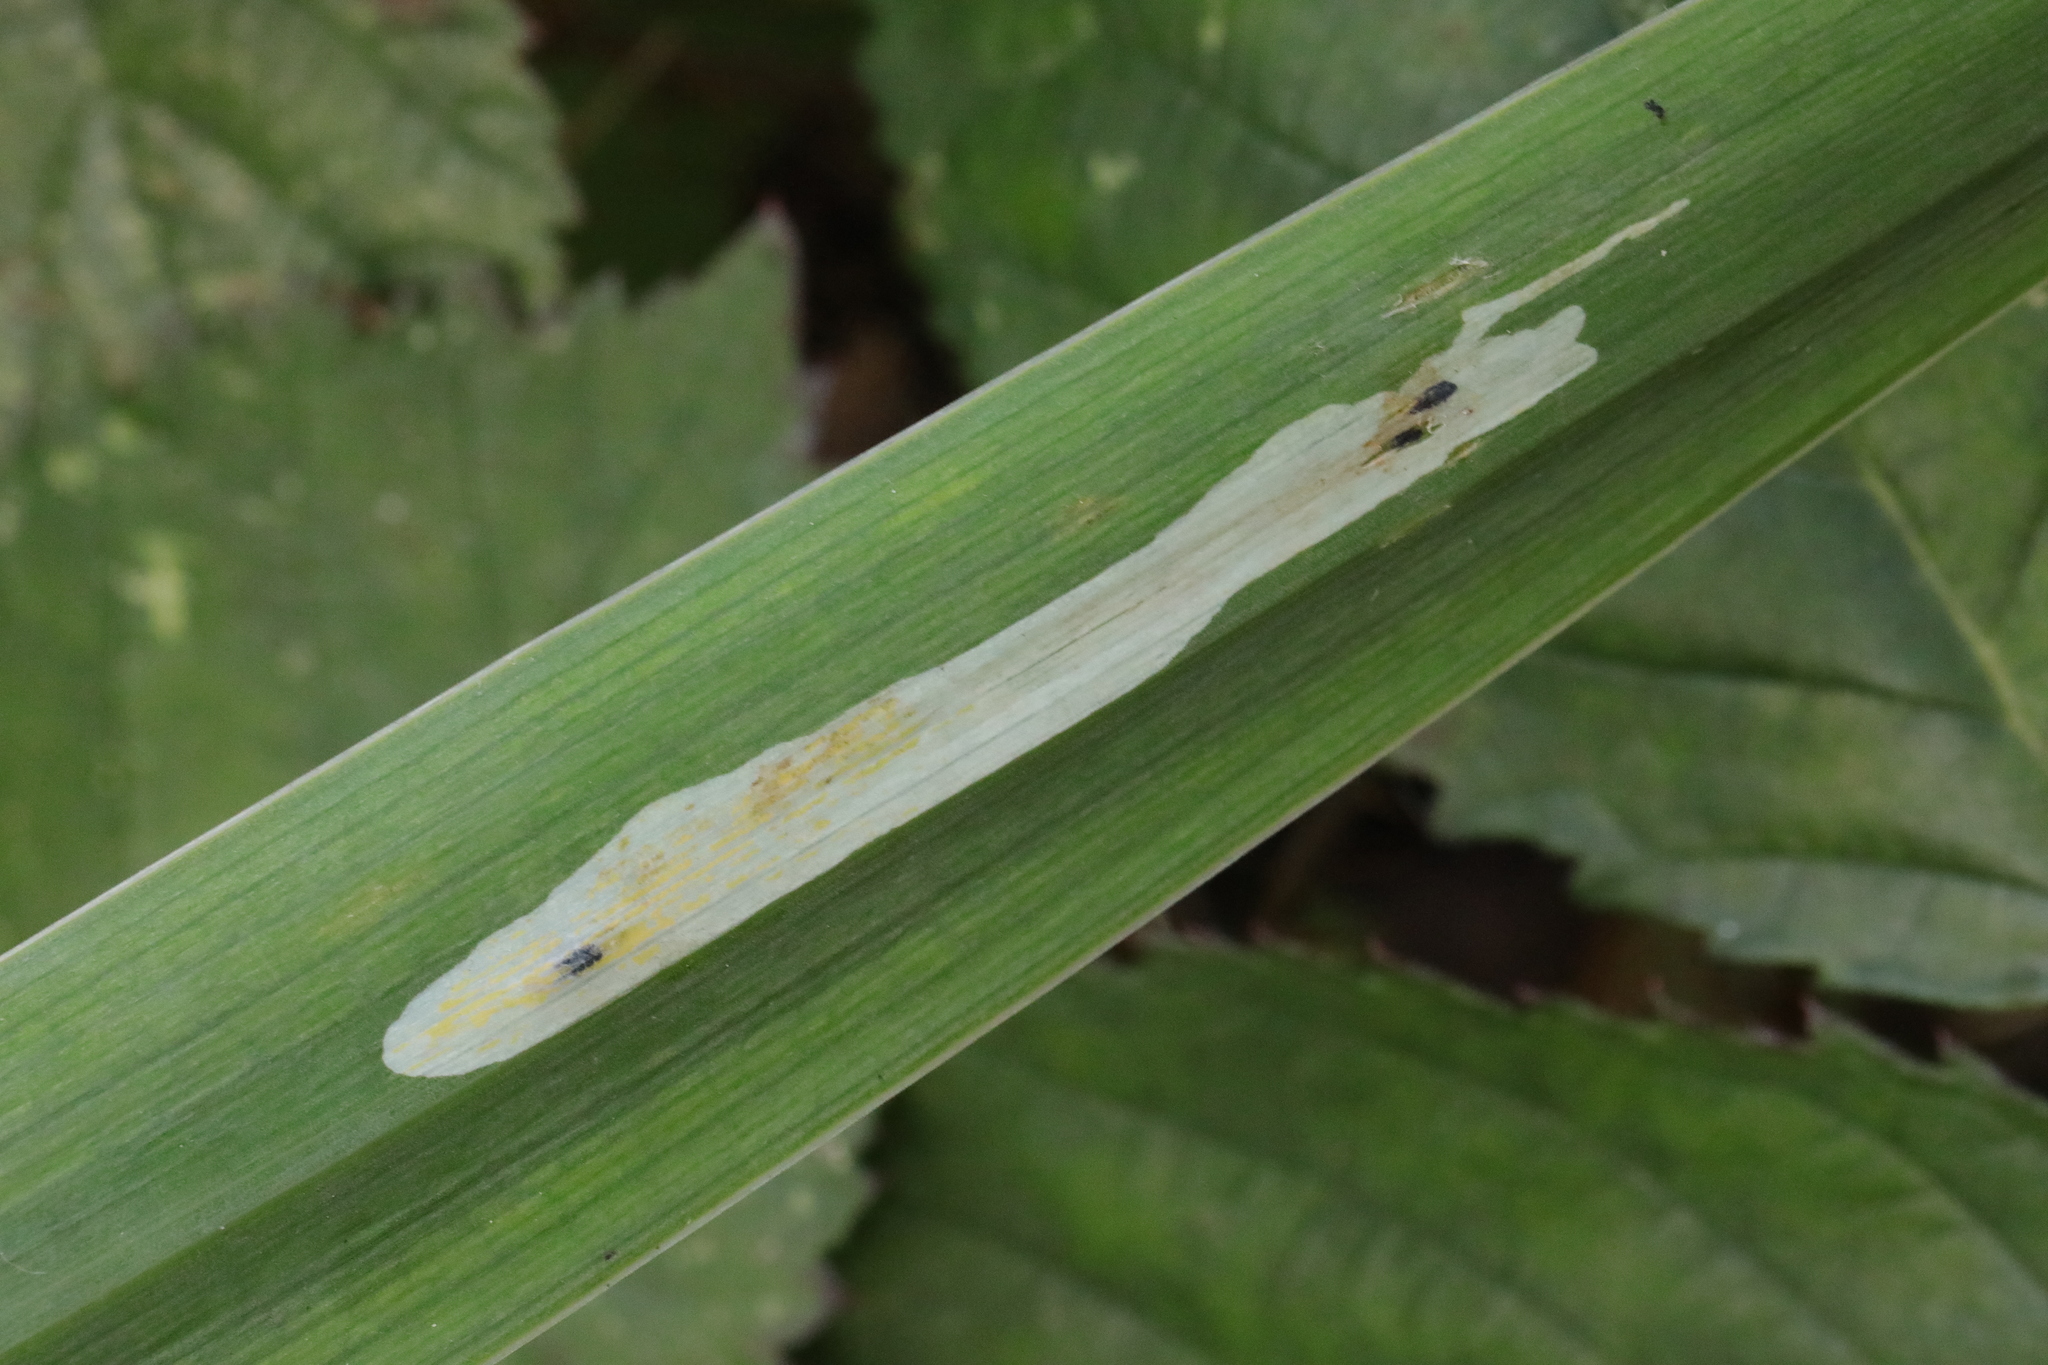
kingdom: Animalia
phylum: Arthropoda
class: Insecta
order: Diptera
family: Agromyzidae
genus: Cerodontha
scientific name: Cerodontha ircos
